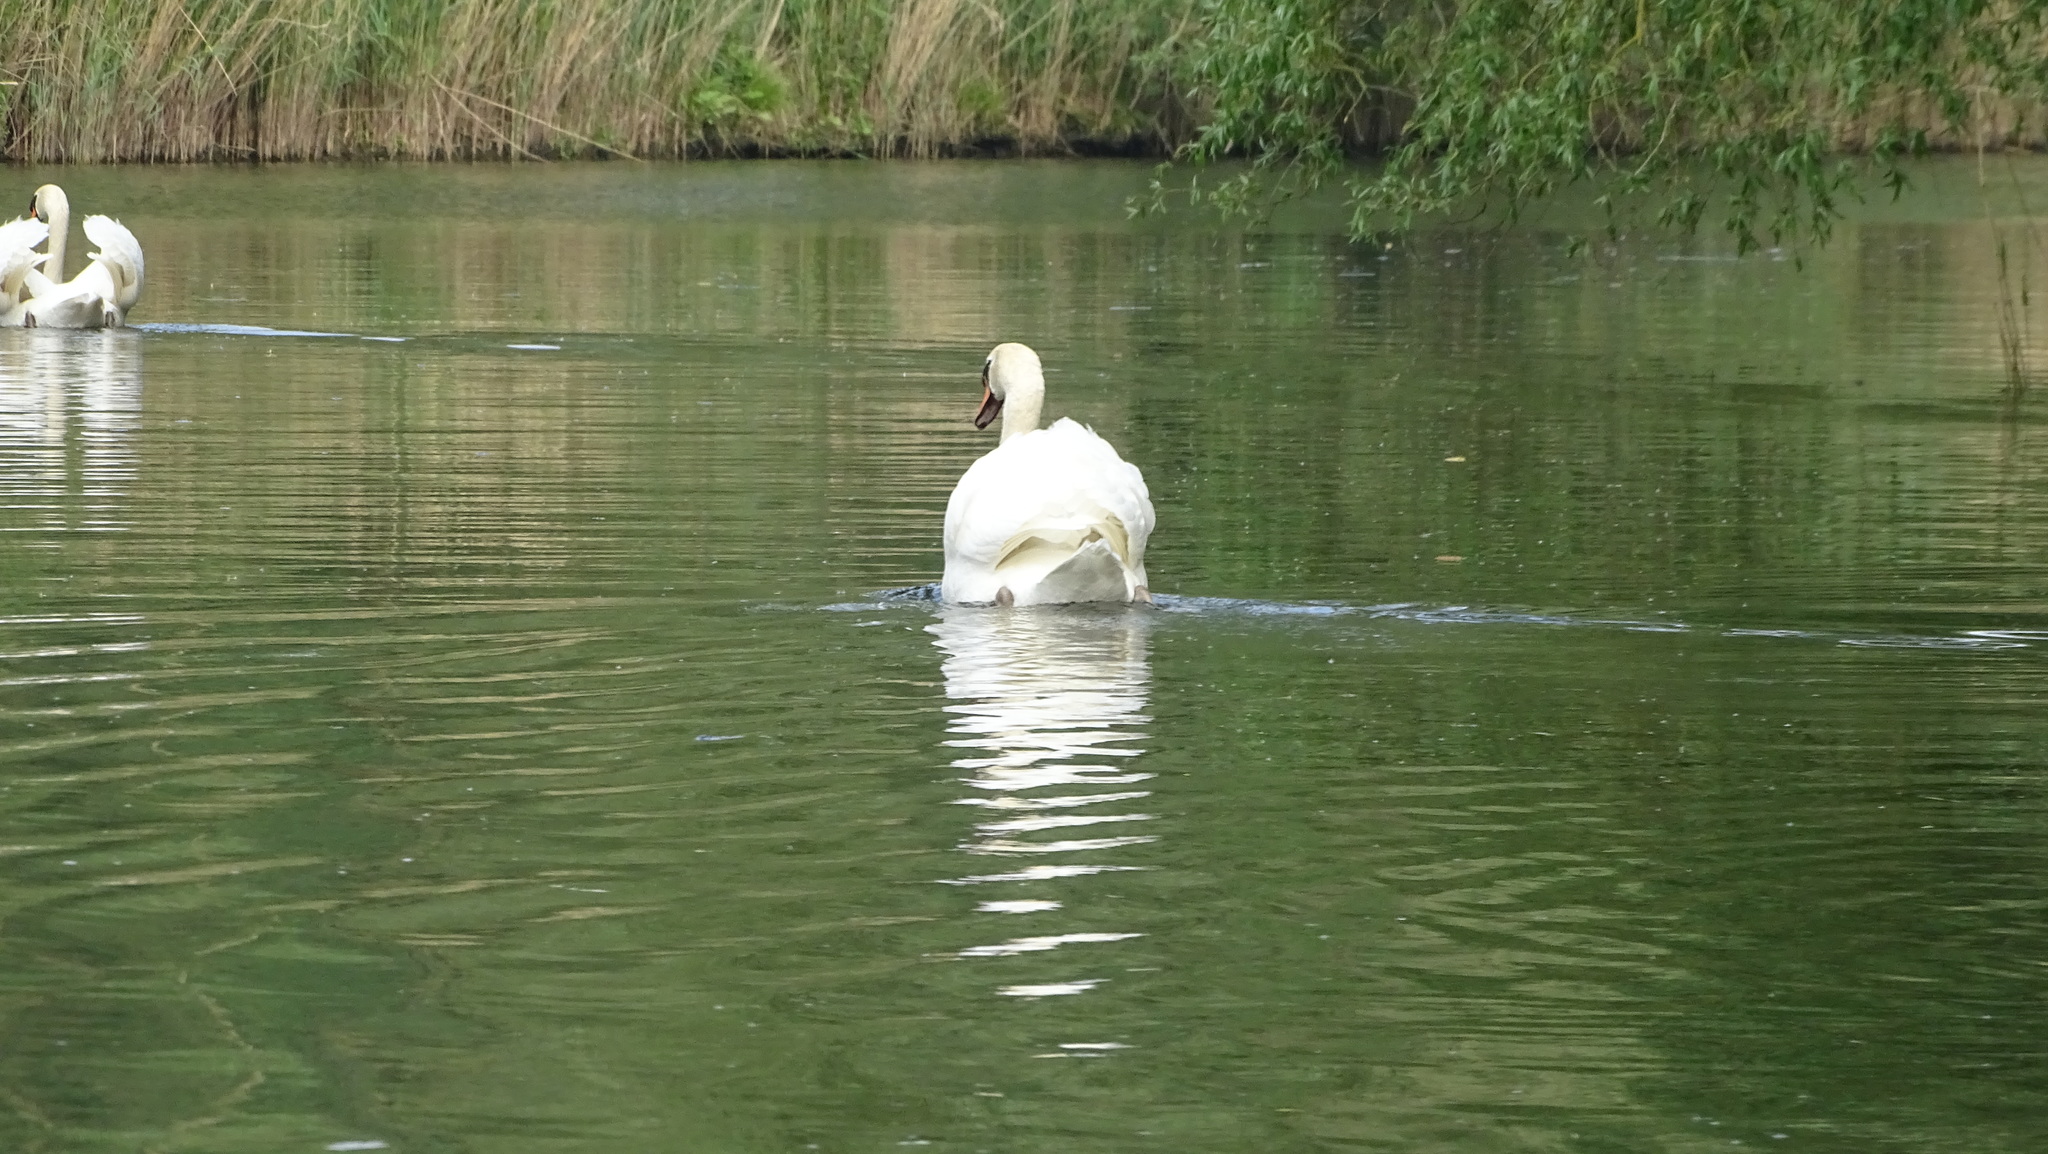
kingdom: Animalia
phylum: Chordata
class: Aves
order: Anseriformes
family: Anatidae
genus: Cygnus
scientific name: Cygnus olor
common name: Mute swan
